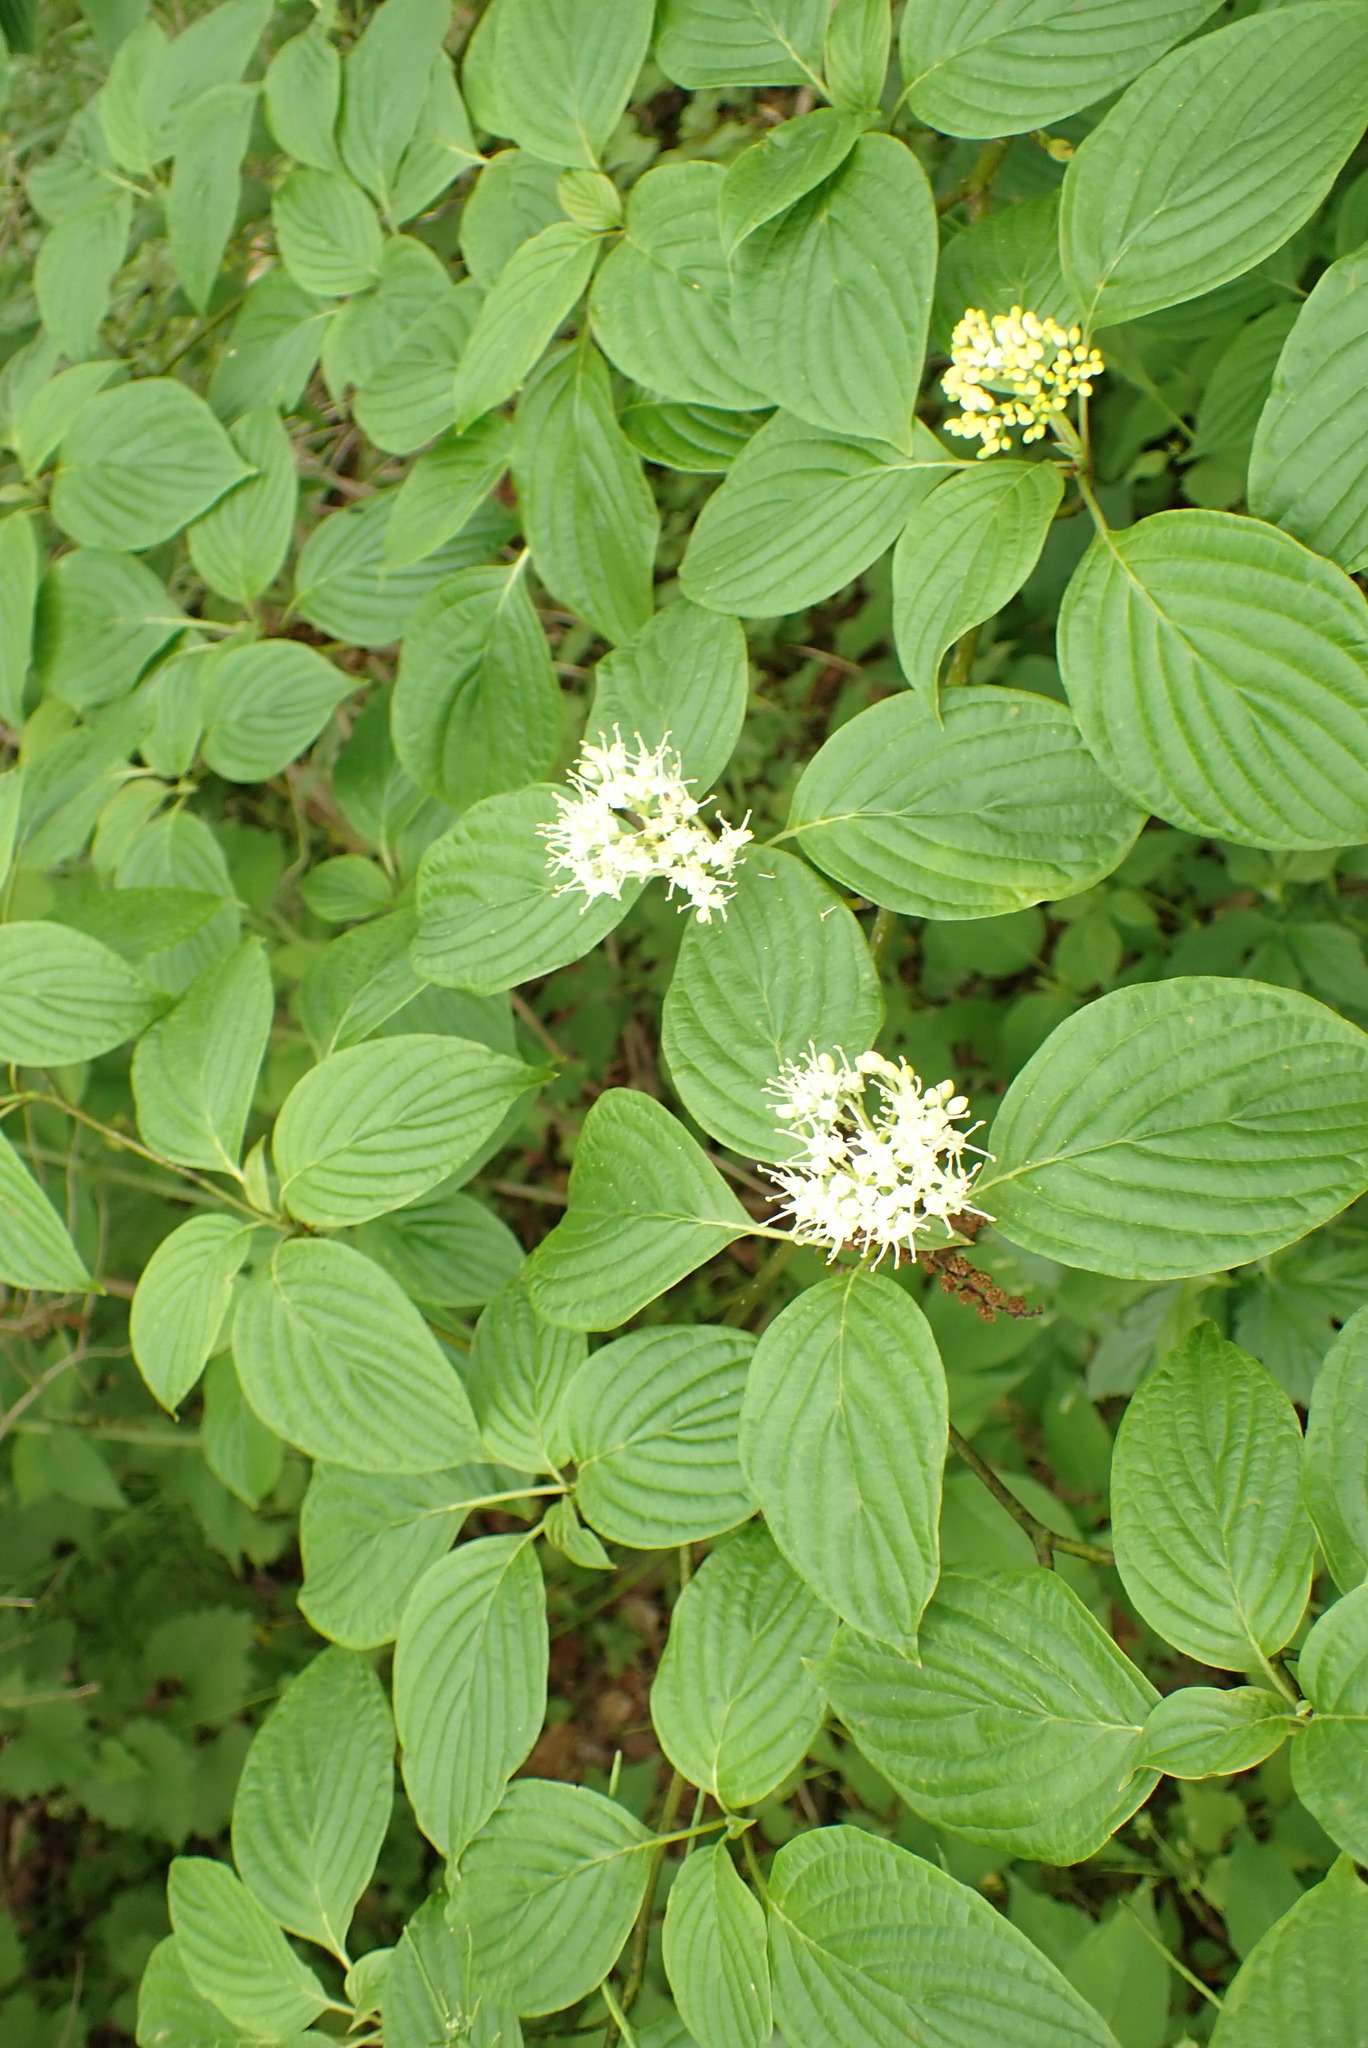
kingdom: Plantae
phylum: Tracheophyta
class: Magnoliopsida
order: Cornales
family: Cornaceae
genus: Cornus
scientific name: Cornus alternifolia
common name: Pagoda dogwood
